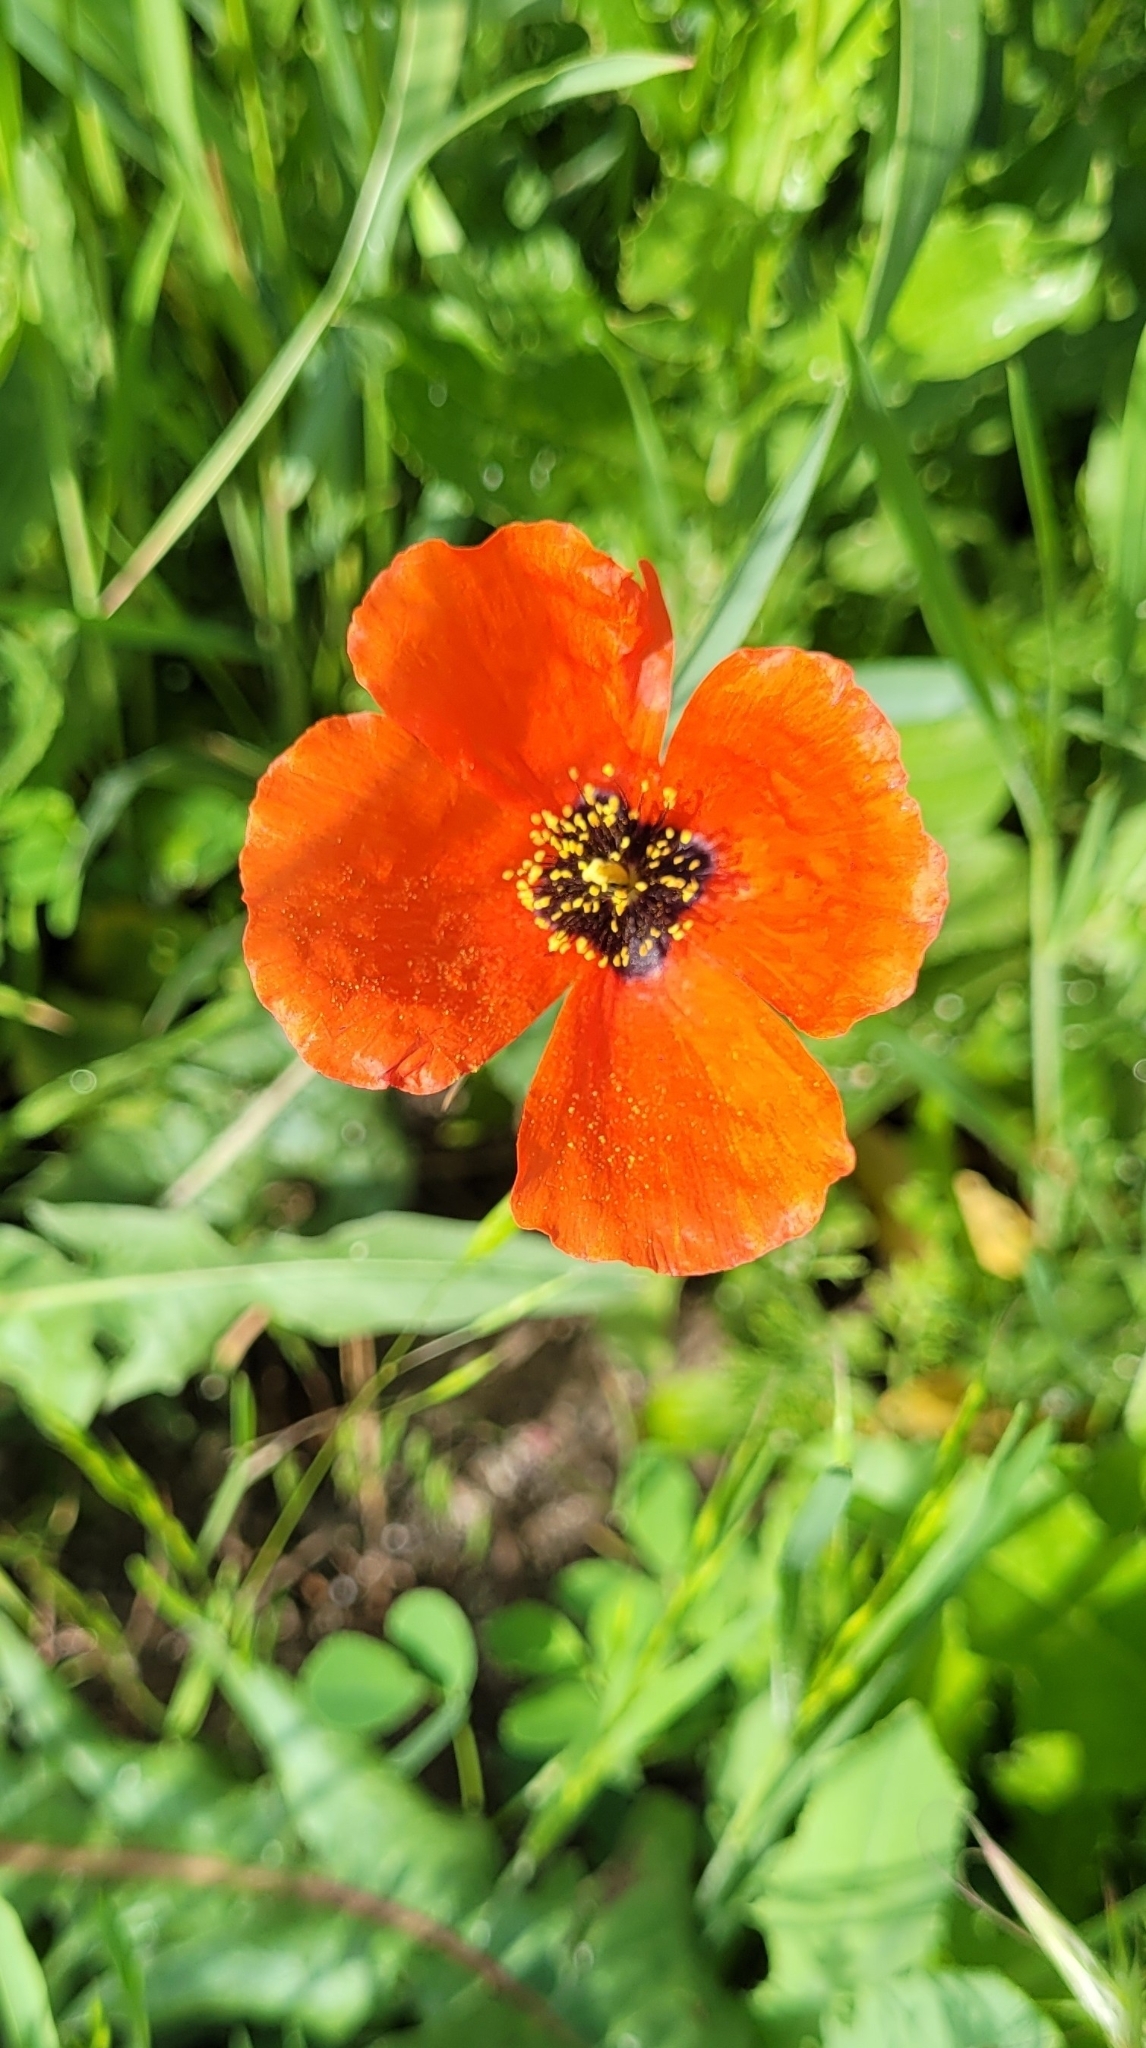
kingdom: Plantae
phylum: Tracheophyta
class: Magnoliopsida
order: Ranunculales
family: Papaveraceae
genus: Roemeria
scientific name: Roemeria refracta
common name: Spotted asian poppy
